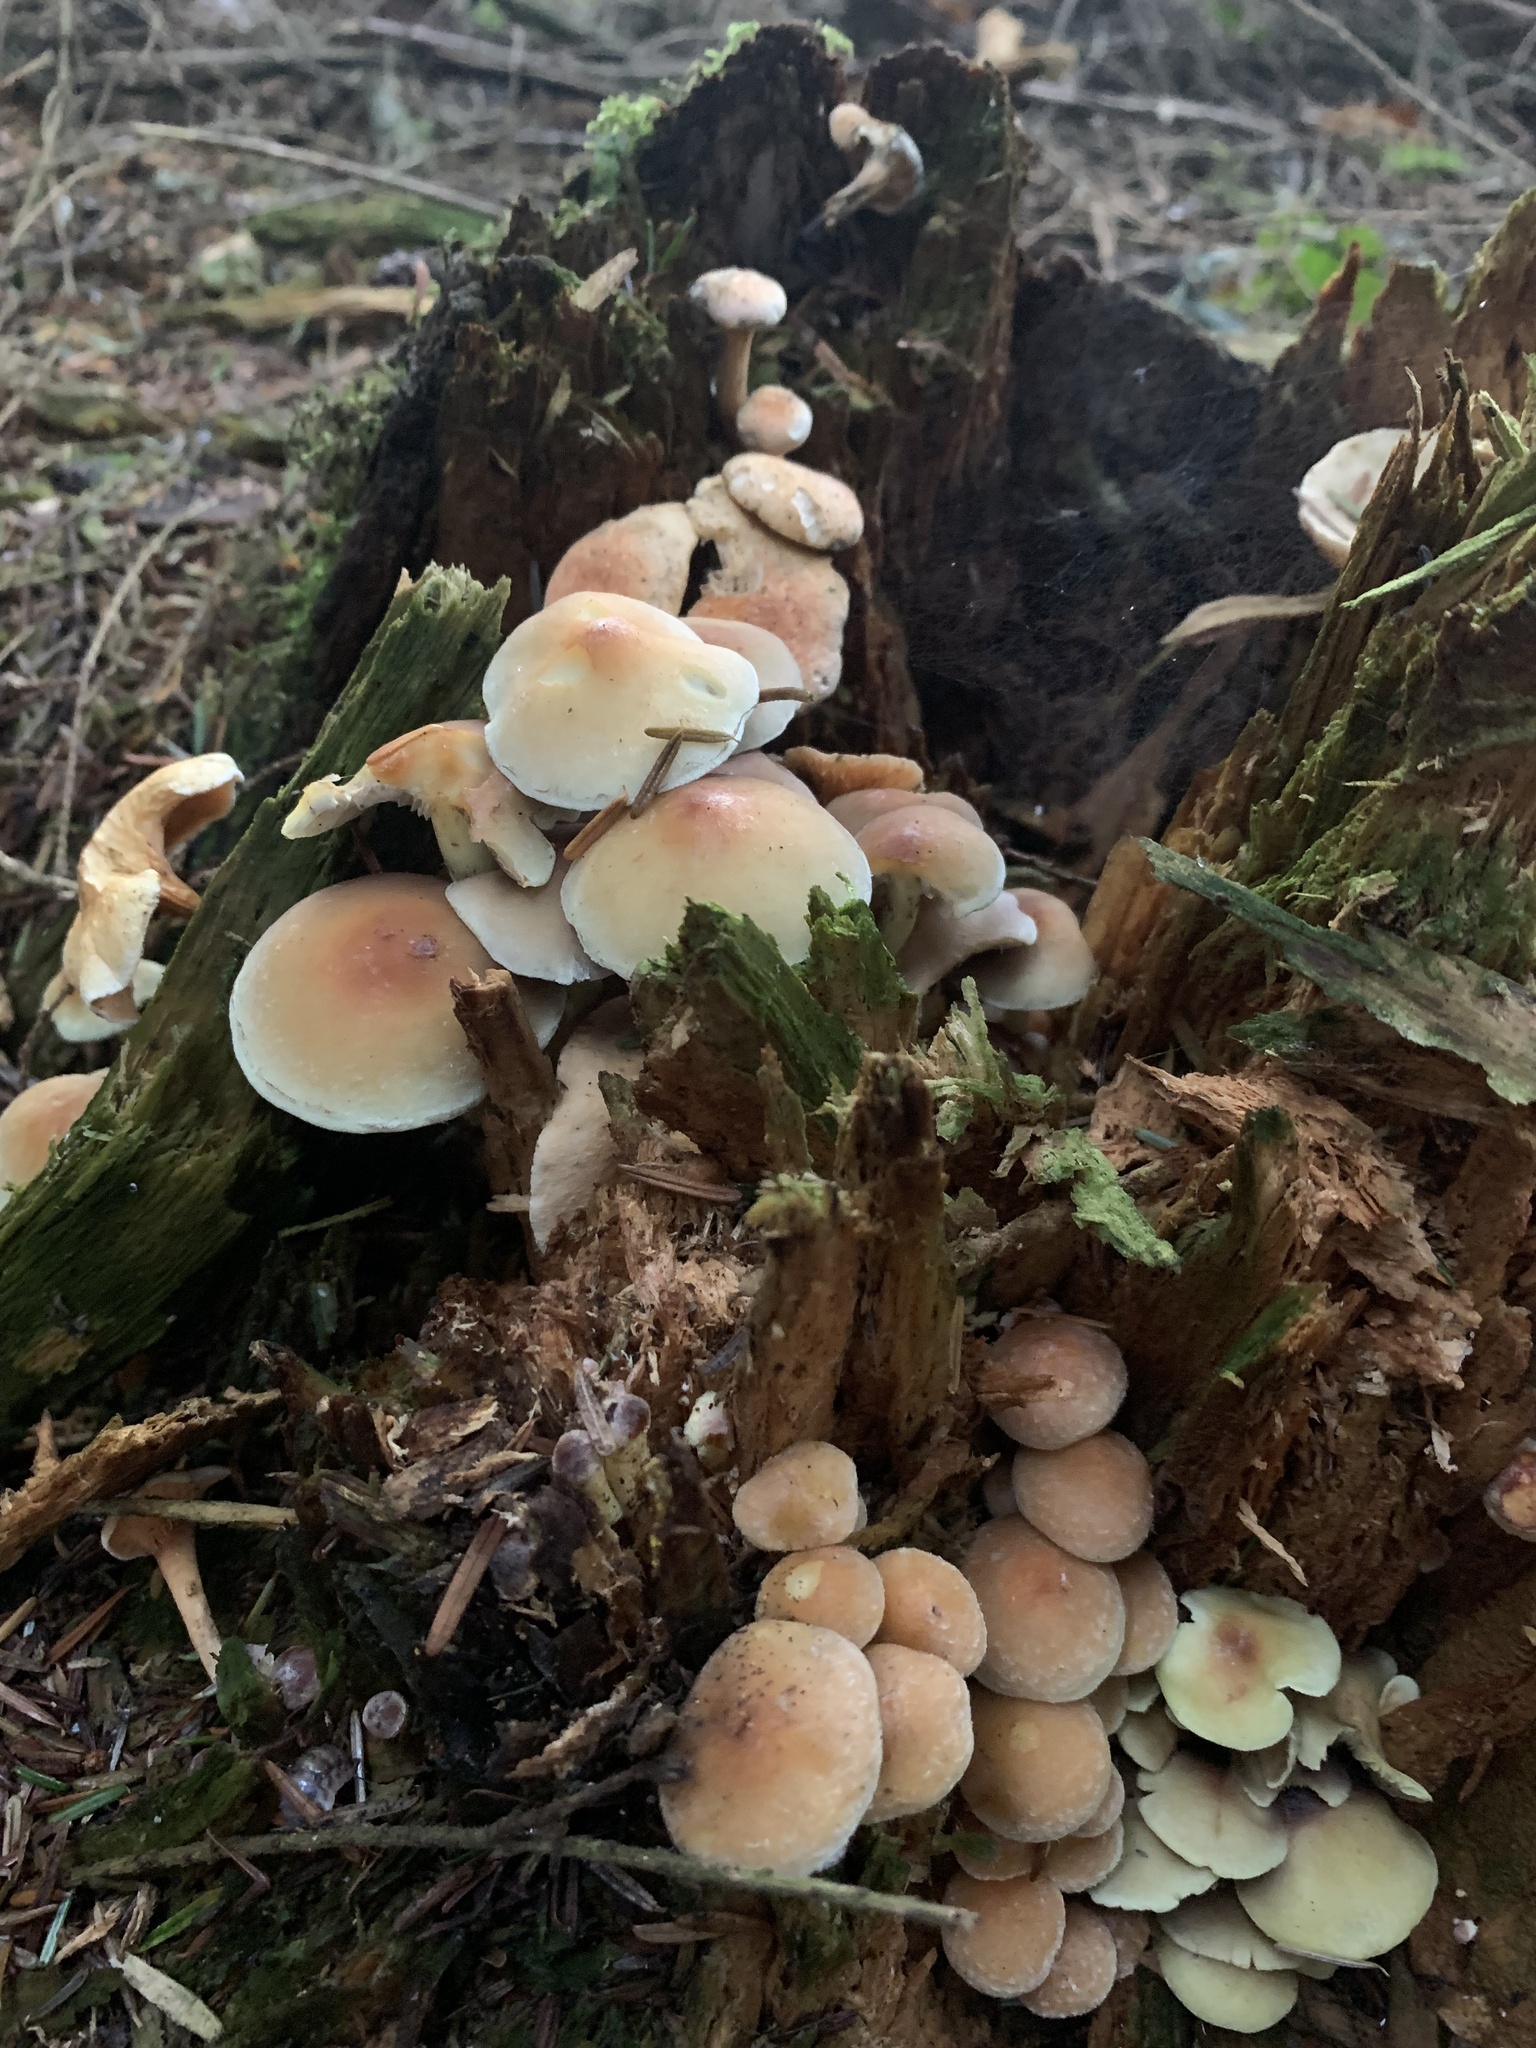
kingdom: Fungi
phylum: Basidiomycota
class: Agaricomycetes
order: Agaricales
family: Strophariaceae
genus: Hypholoma
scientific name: Hypholoma fasciculare
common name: Sulphur tuft
